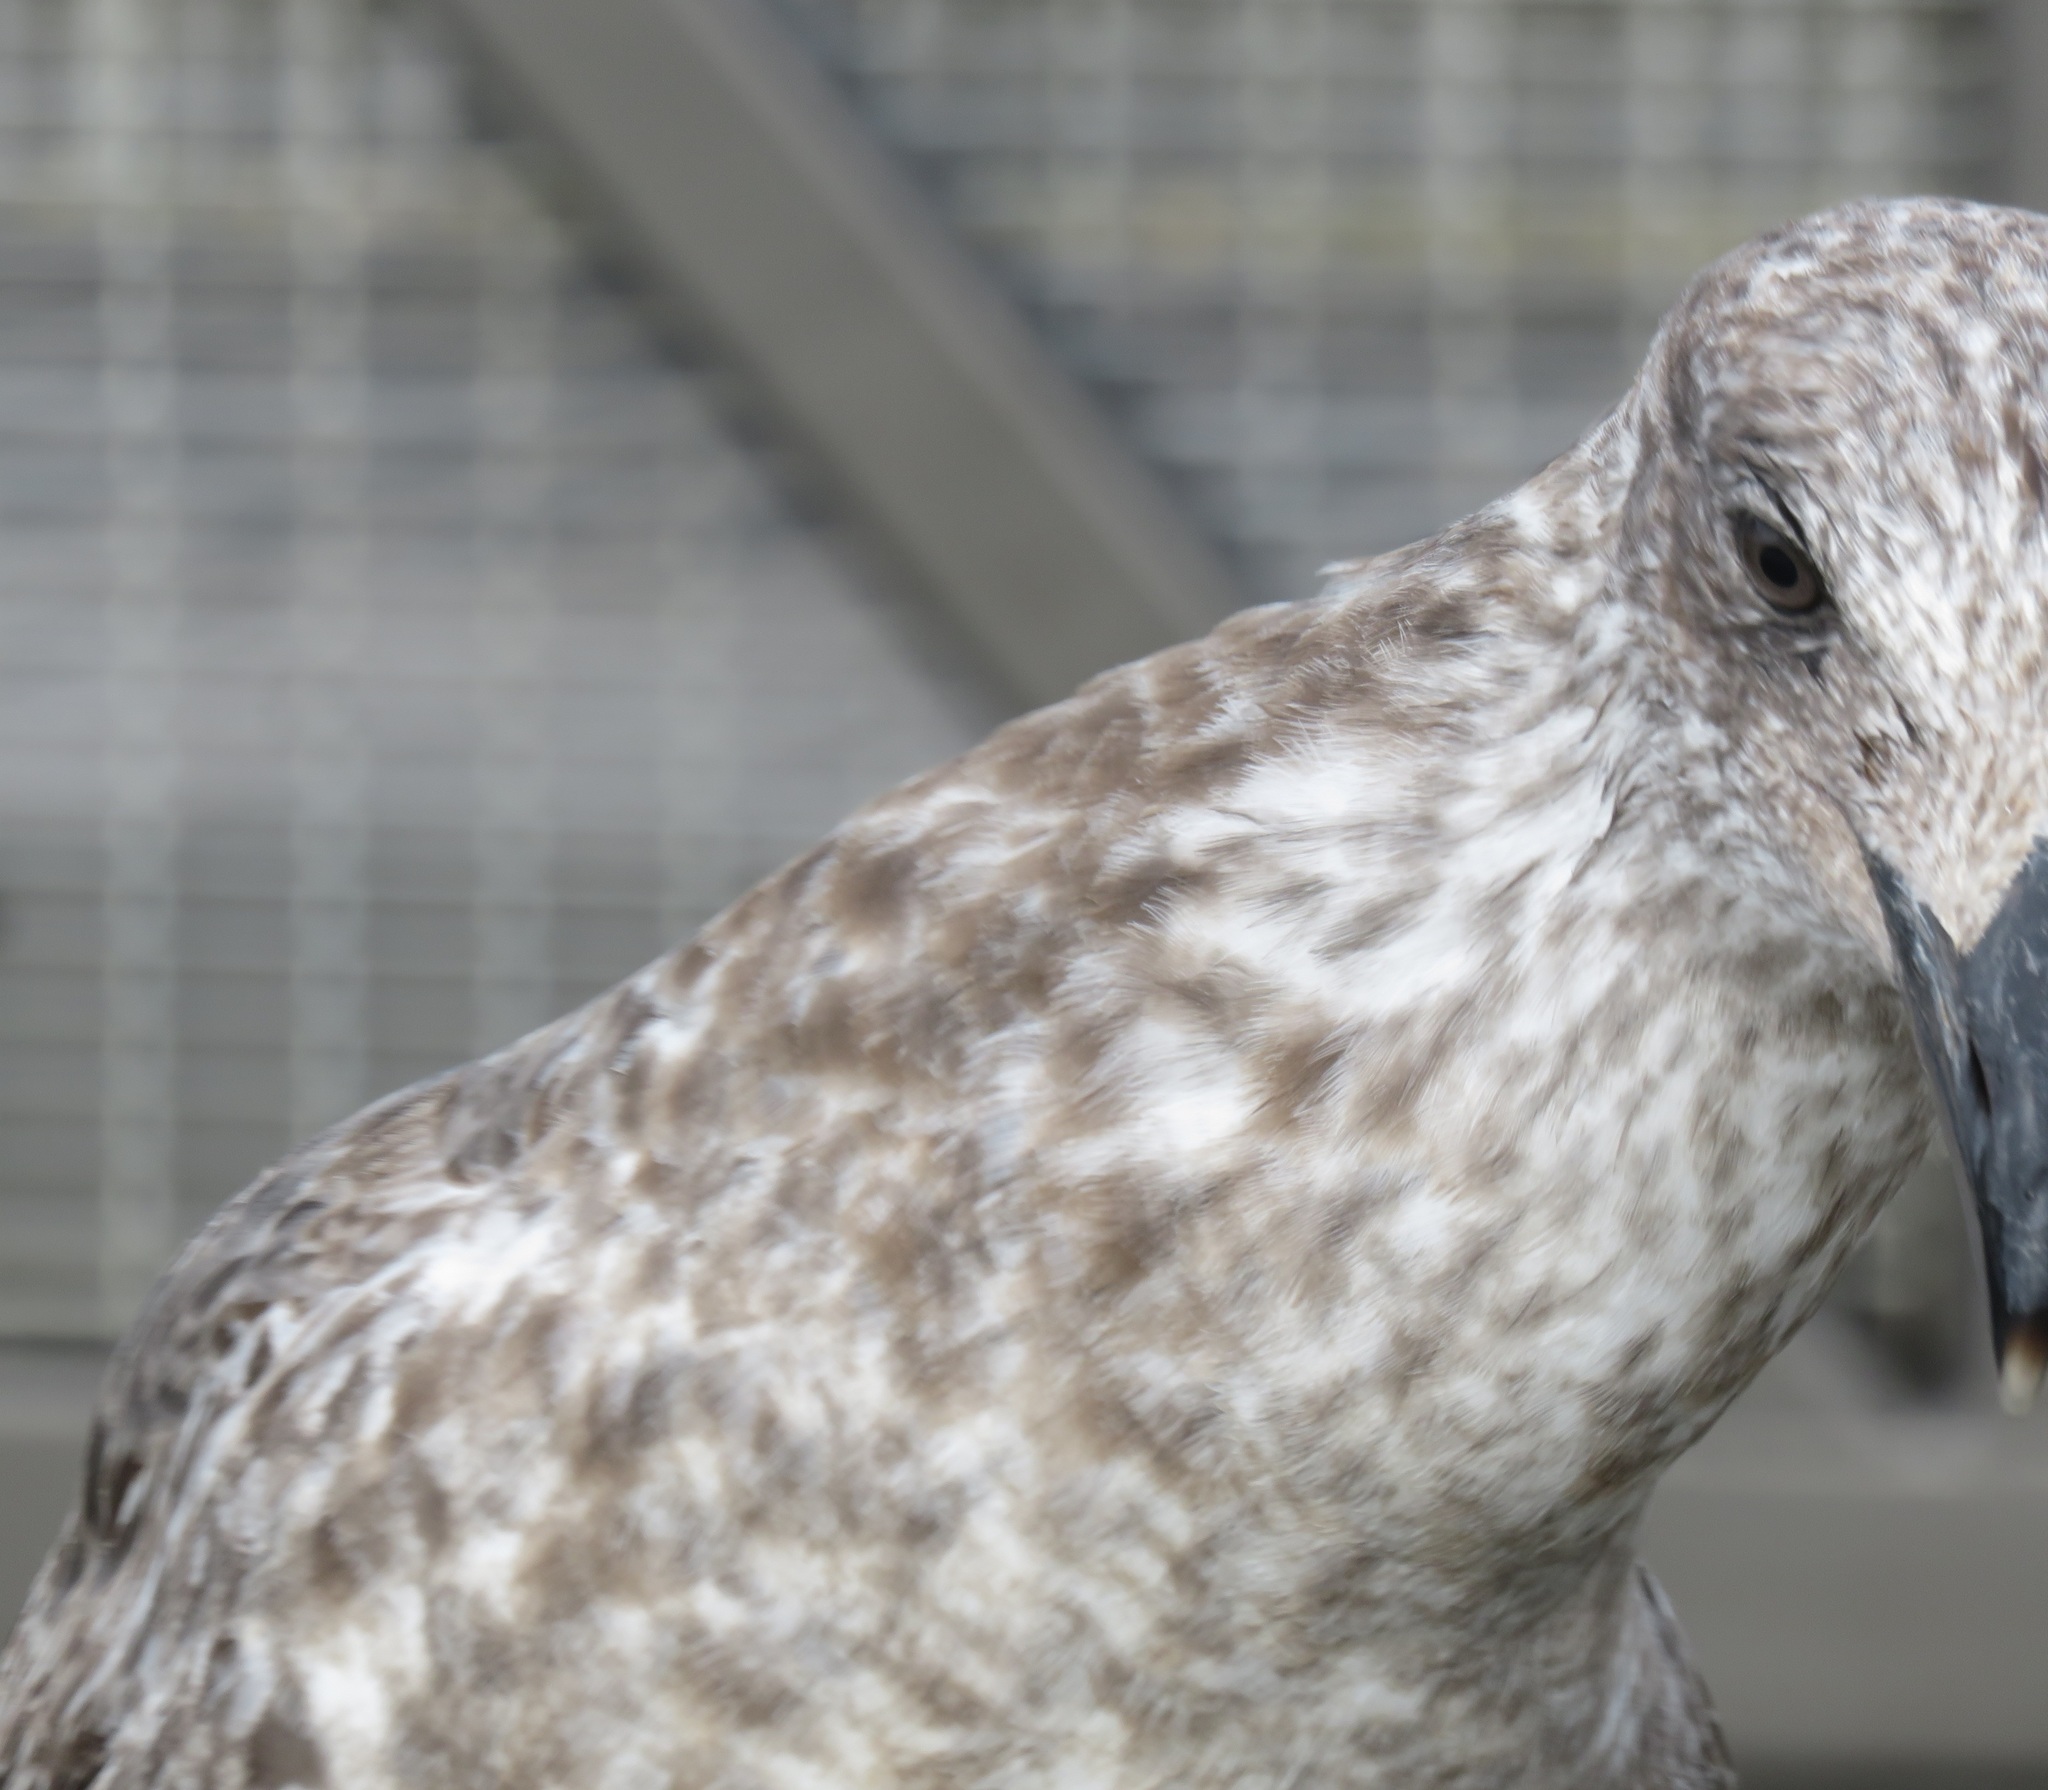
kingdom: Animalia
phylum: Chordata
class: Aves
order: Charadriiformes
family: Laridae
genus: Larus
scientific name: Larus dominicanus
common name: Kelp gull
